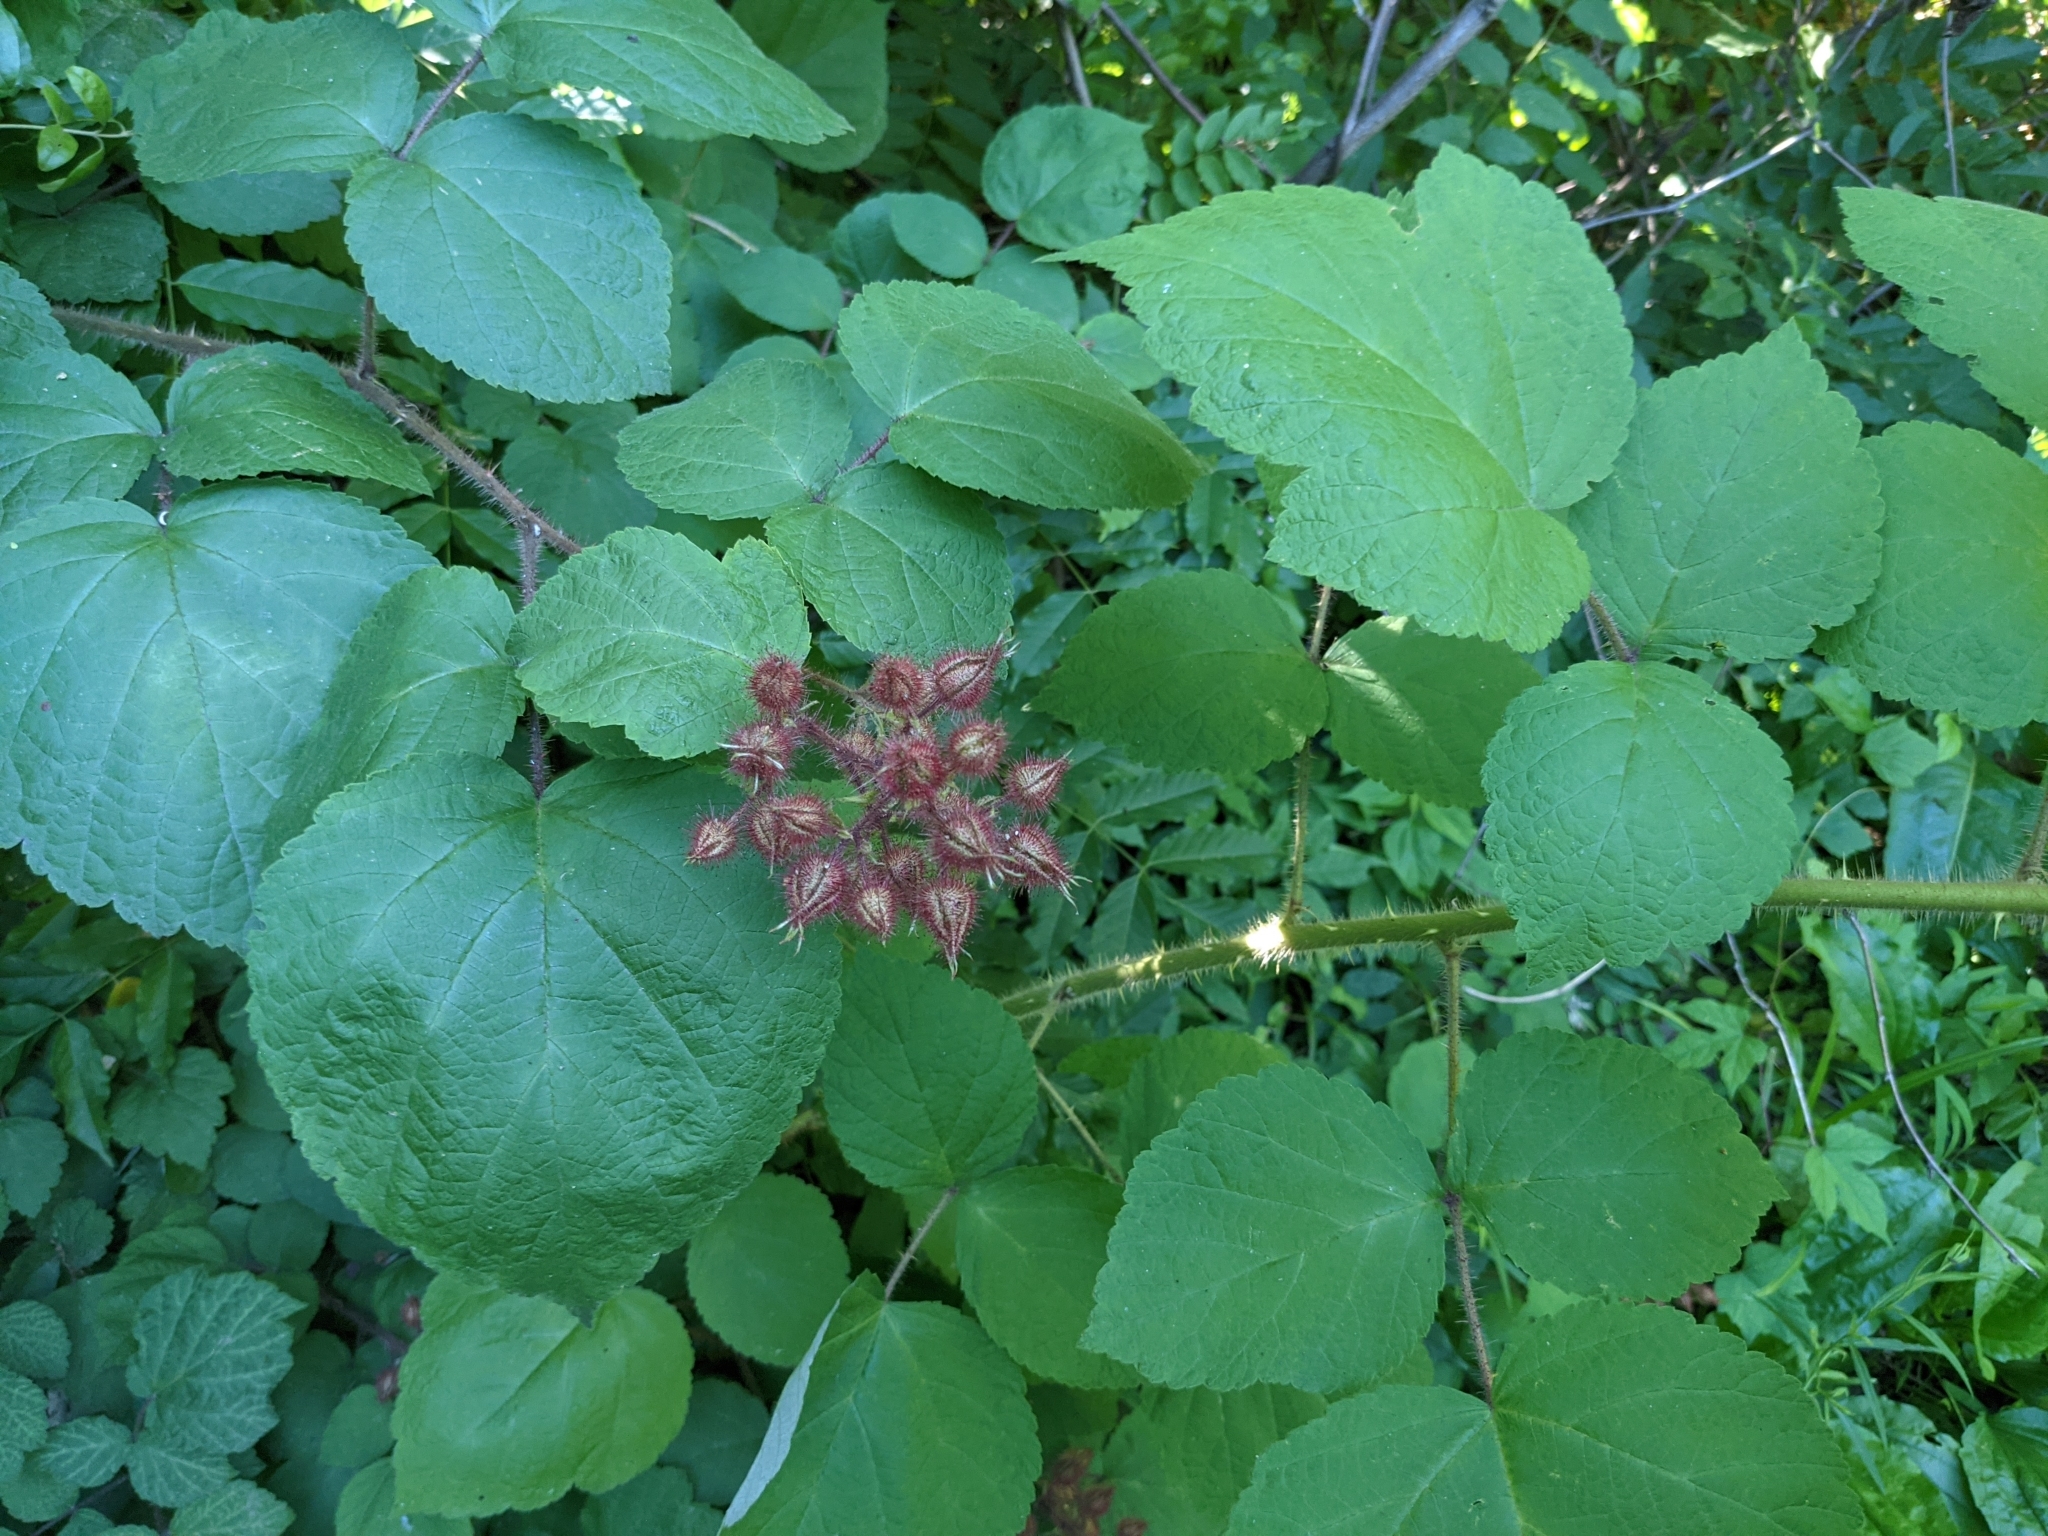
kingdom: Plantae
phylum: Tracheophyta
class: Magnoliopsida
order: Rosales
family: Rosaceae
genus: Rubus
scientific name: Rubus phoenicolasius
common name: Japanese wineberry
